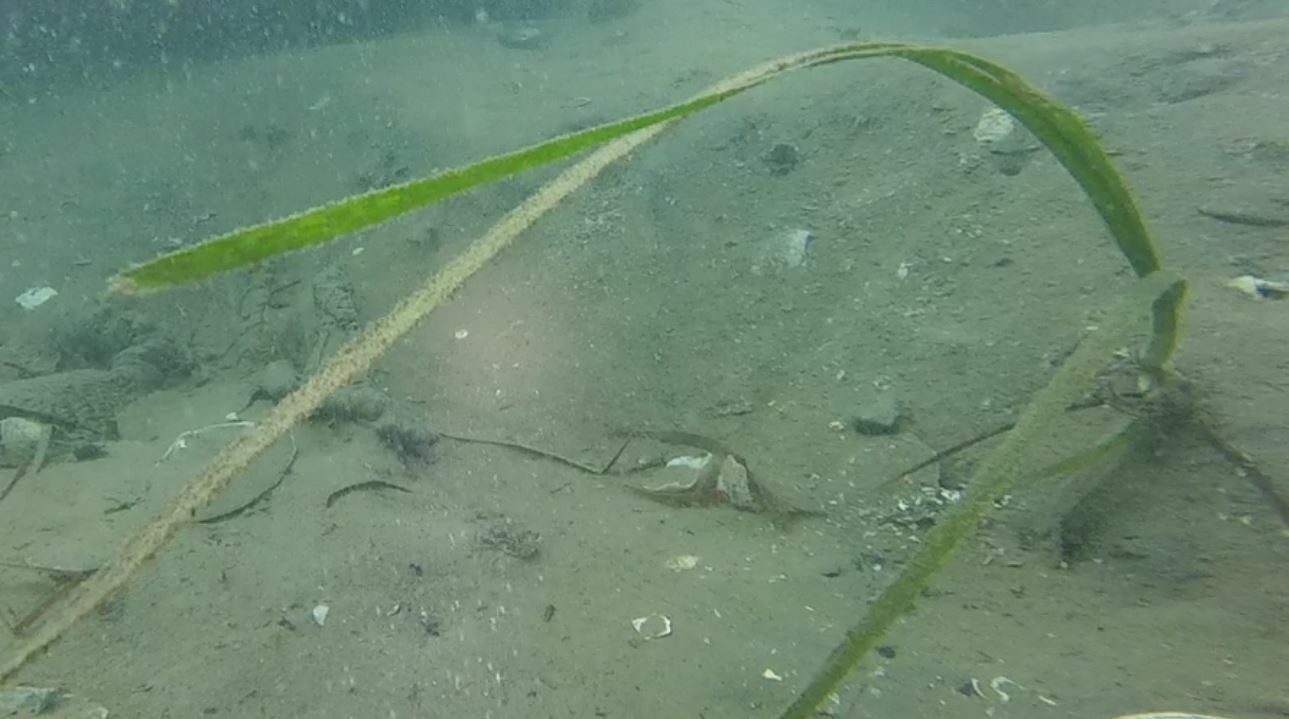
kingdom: Plantae
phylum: Tracheophyta
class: Liliopsida
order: Alismatales
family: Zosteraceae
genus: Zostera
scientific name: Zostera marina
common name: Eelgrass
